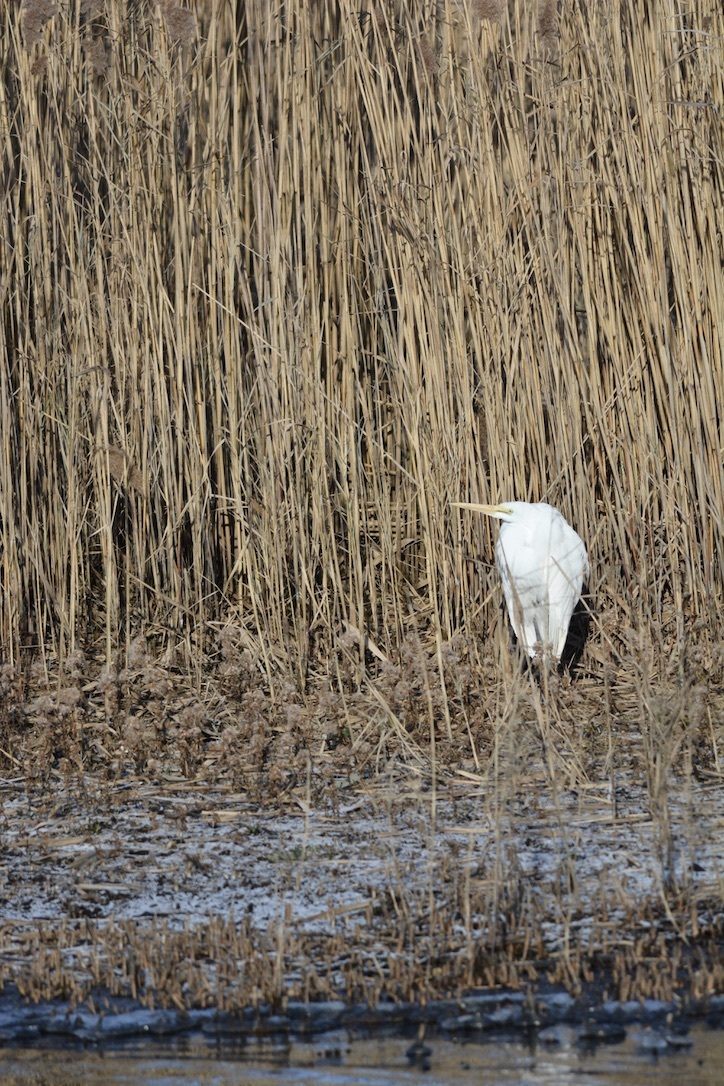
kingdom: Animalia
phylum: Chordata
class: Aves
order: Pelecaniformes
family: Ardeidae
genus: Ardea
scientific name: Ardea alba
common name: Great egret
